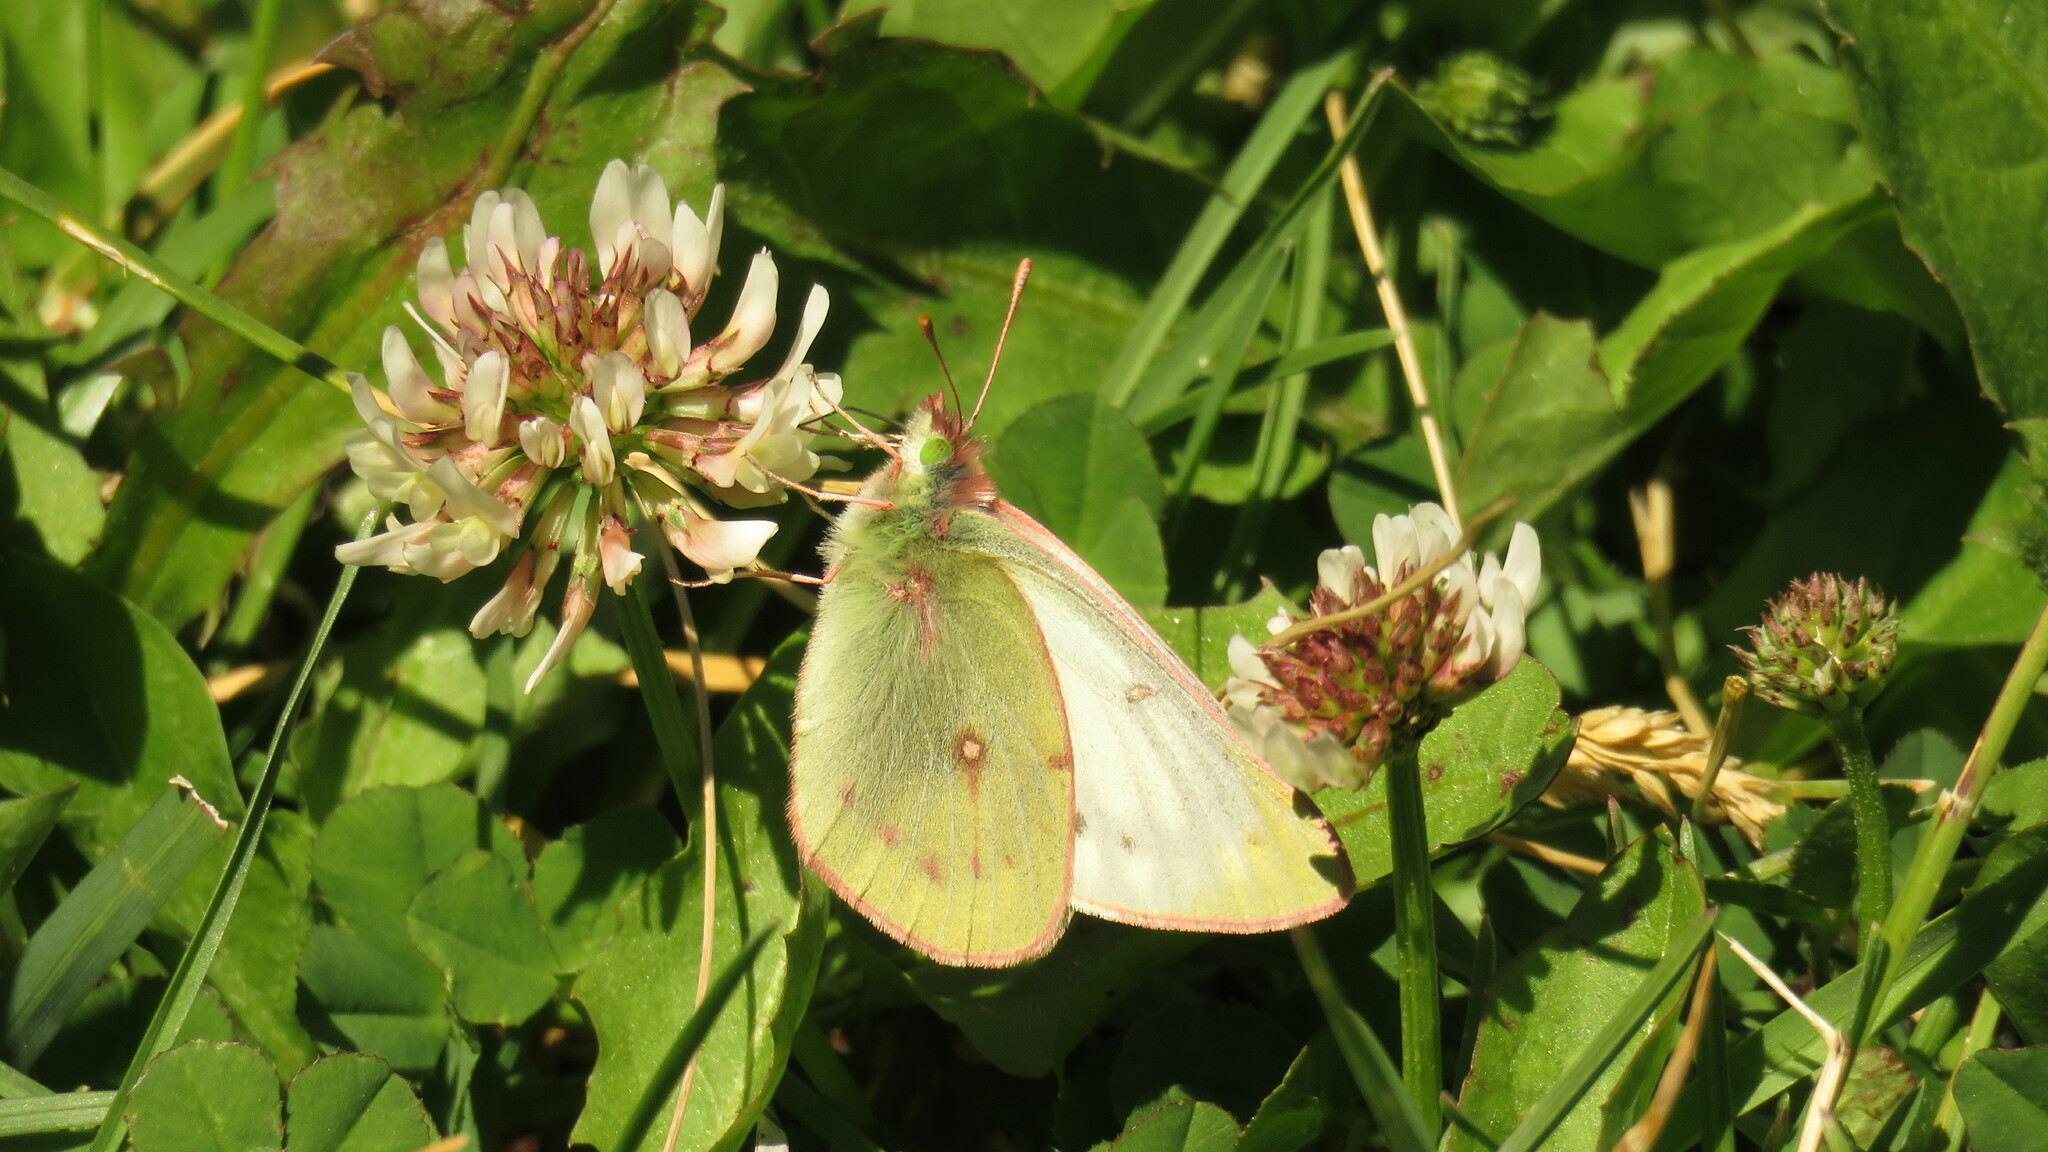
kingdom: Animalia
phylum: Arthropoda
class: Insecta
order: Lepidoptera
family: Pieridae
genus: Colias
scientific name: Colias vauthierii
